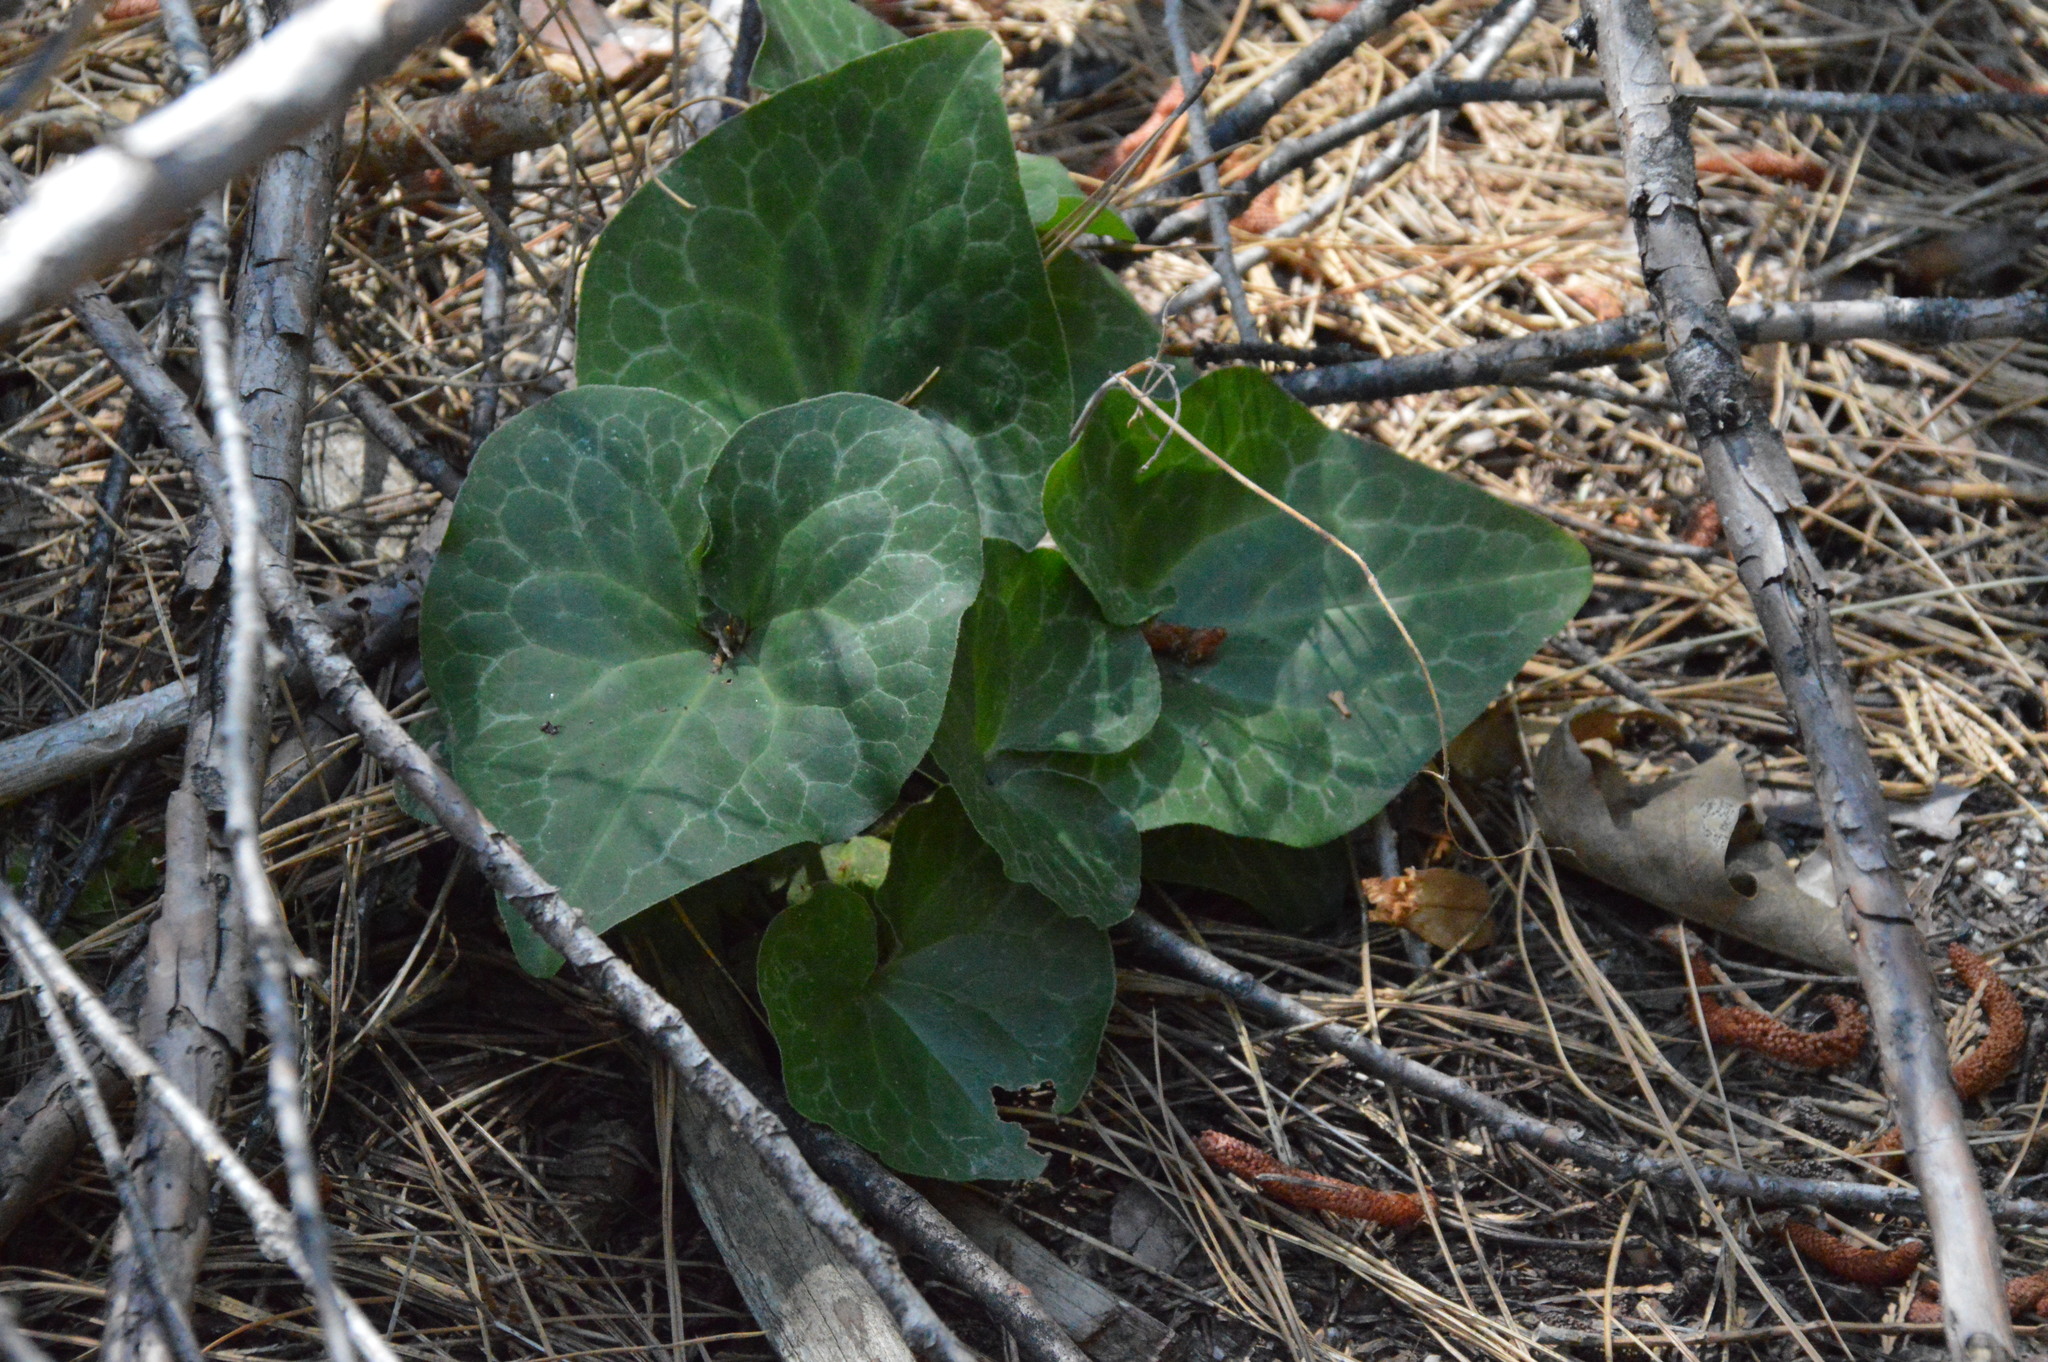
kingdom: Plantae
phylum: Tracheophyta
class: Magnoliopsida
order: Piperales
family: Aristolochiaceae
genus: Asarum
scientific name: Asarum hartwegii
